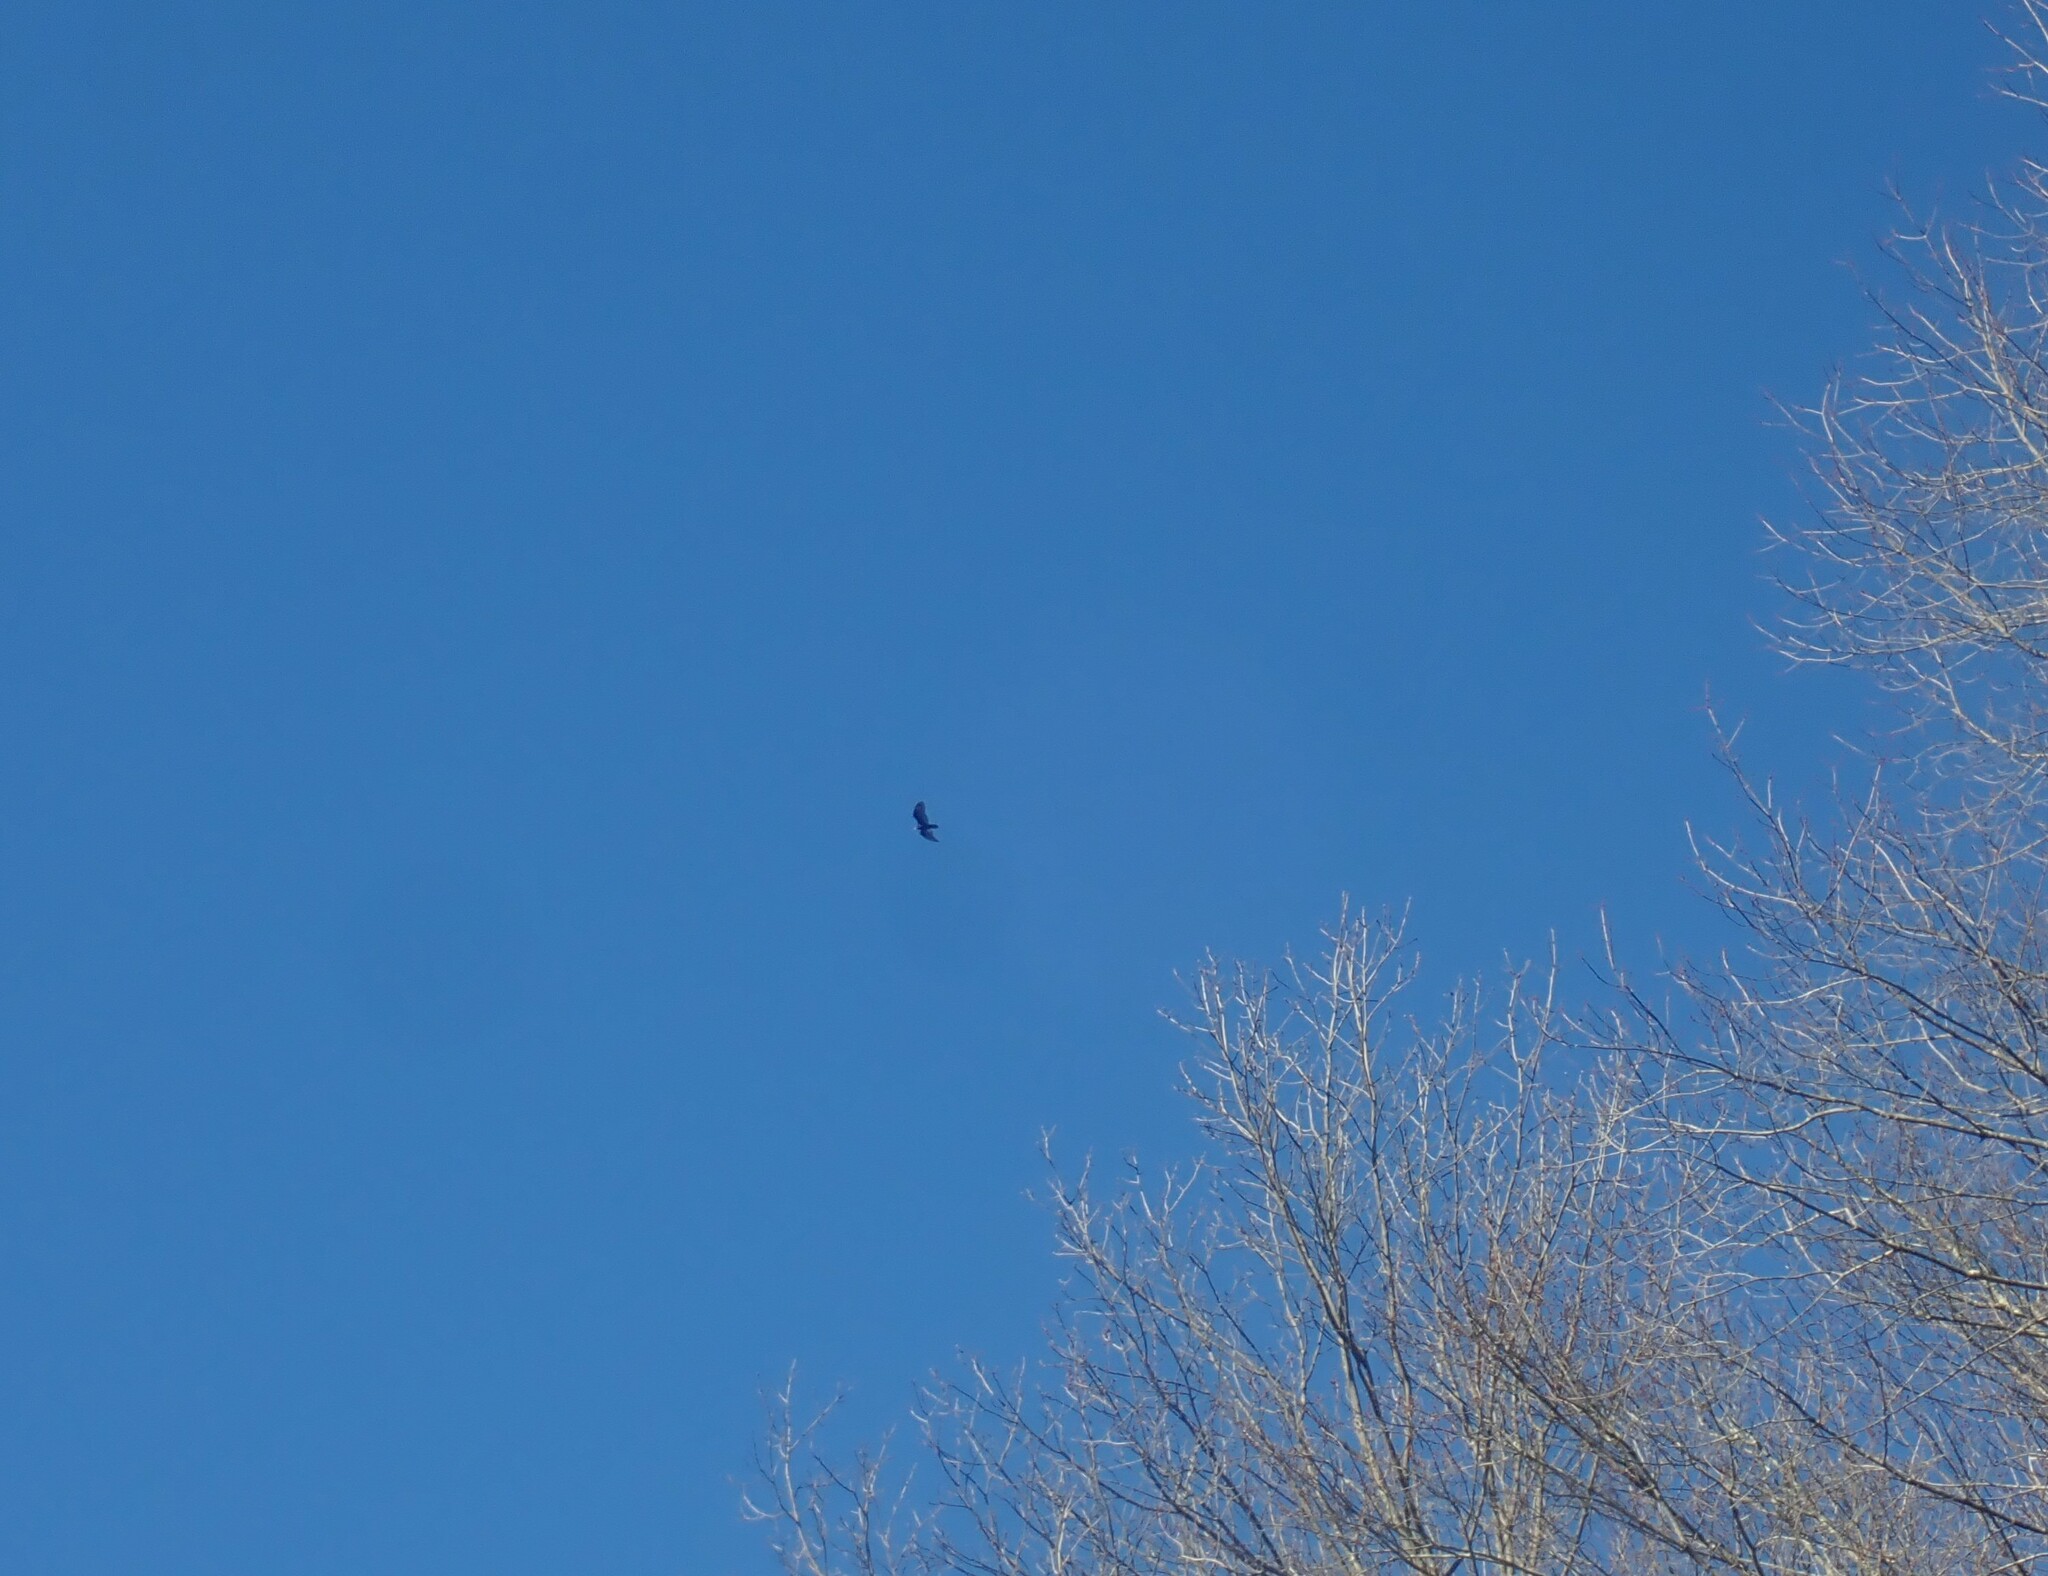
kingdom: Animalia
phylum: Chordata
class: Aves
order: Accipitriformes
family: Cathartidae
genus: Cathartes
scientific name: Cathartes aura
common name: Turkey vulture
